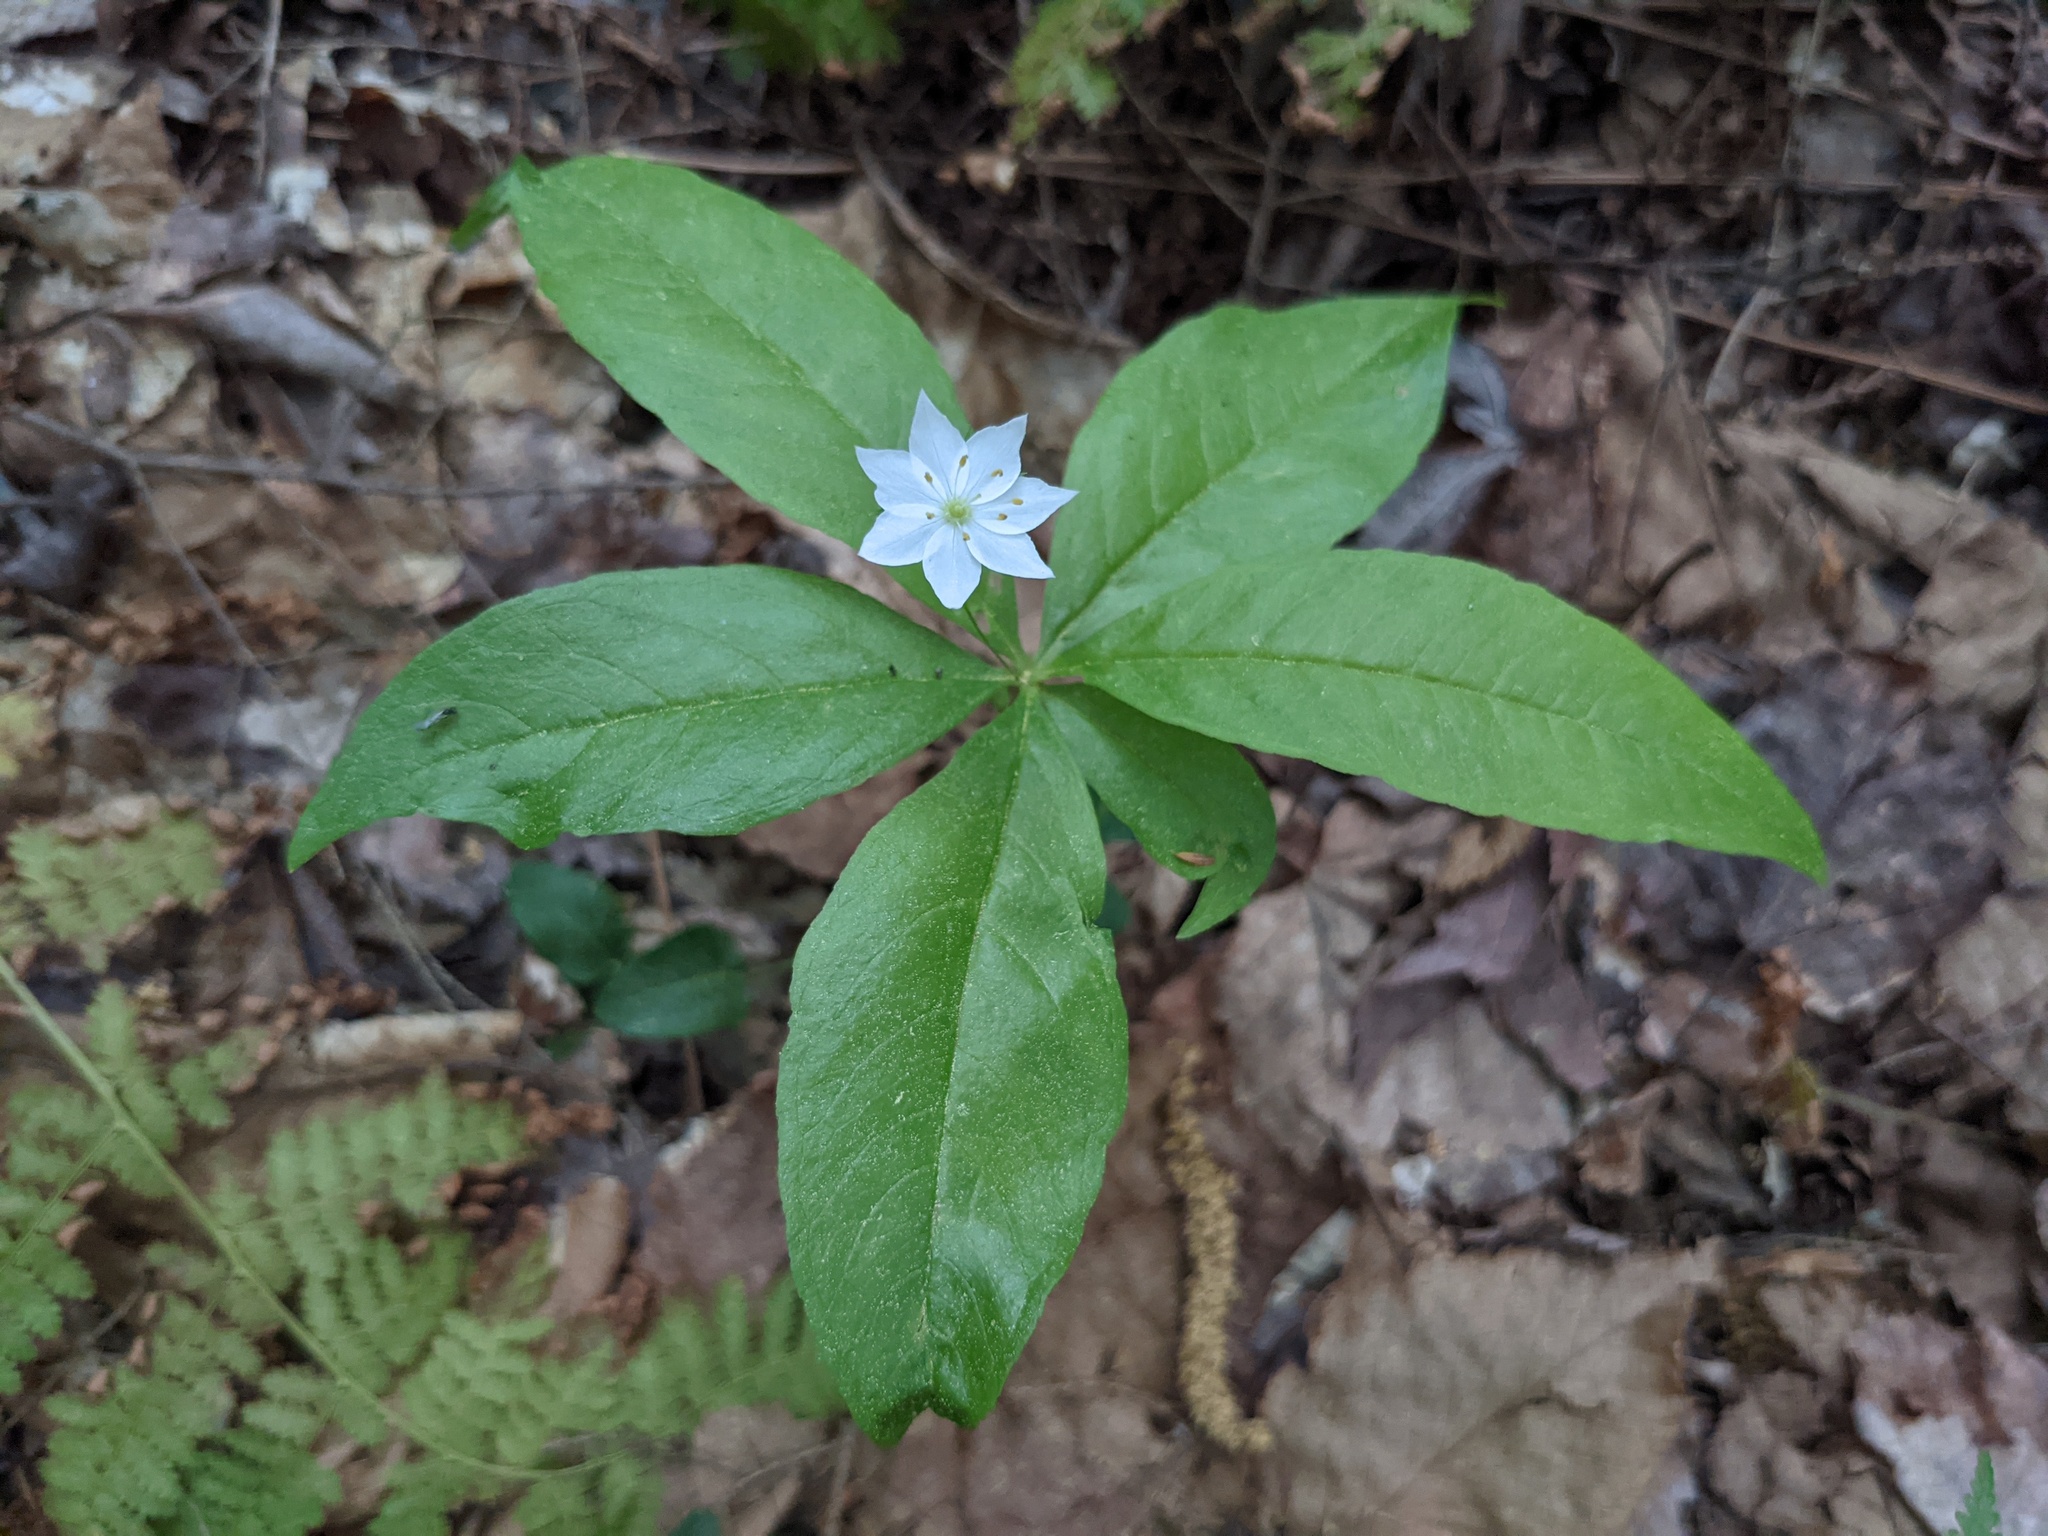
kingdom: Plantae
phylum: Tracheophyta
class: Magnoliopsida
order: Ericales
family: Primulaceae
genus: Lysimachia
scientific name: Lysimachia borealis
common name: American starflower
